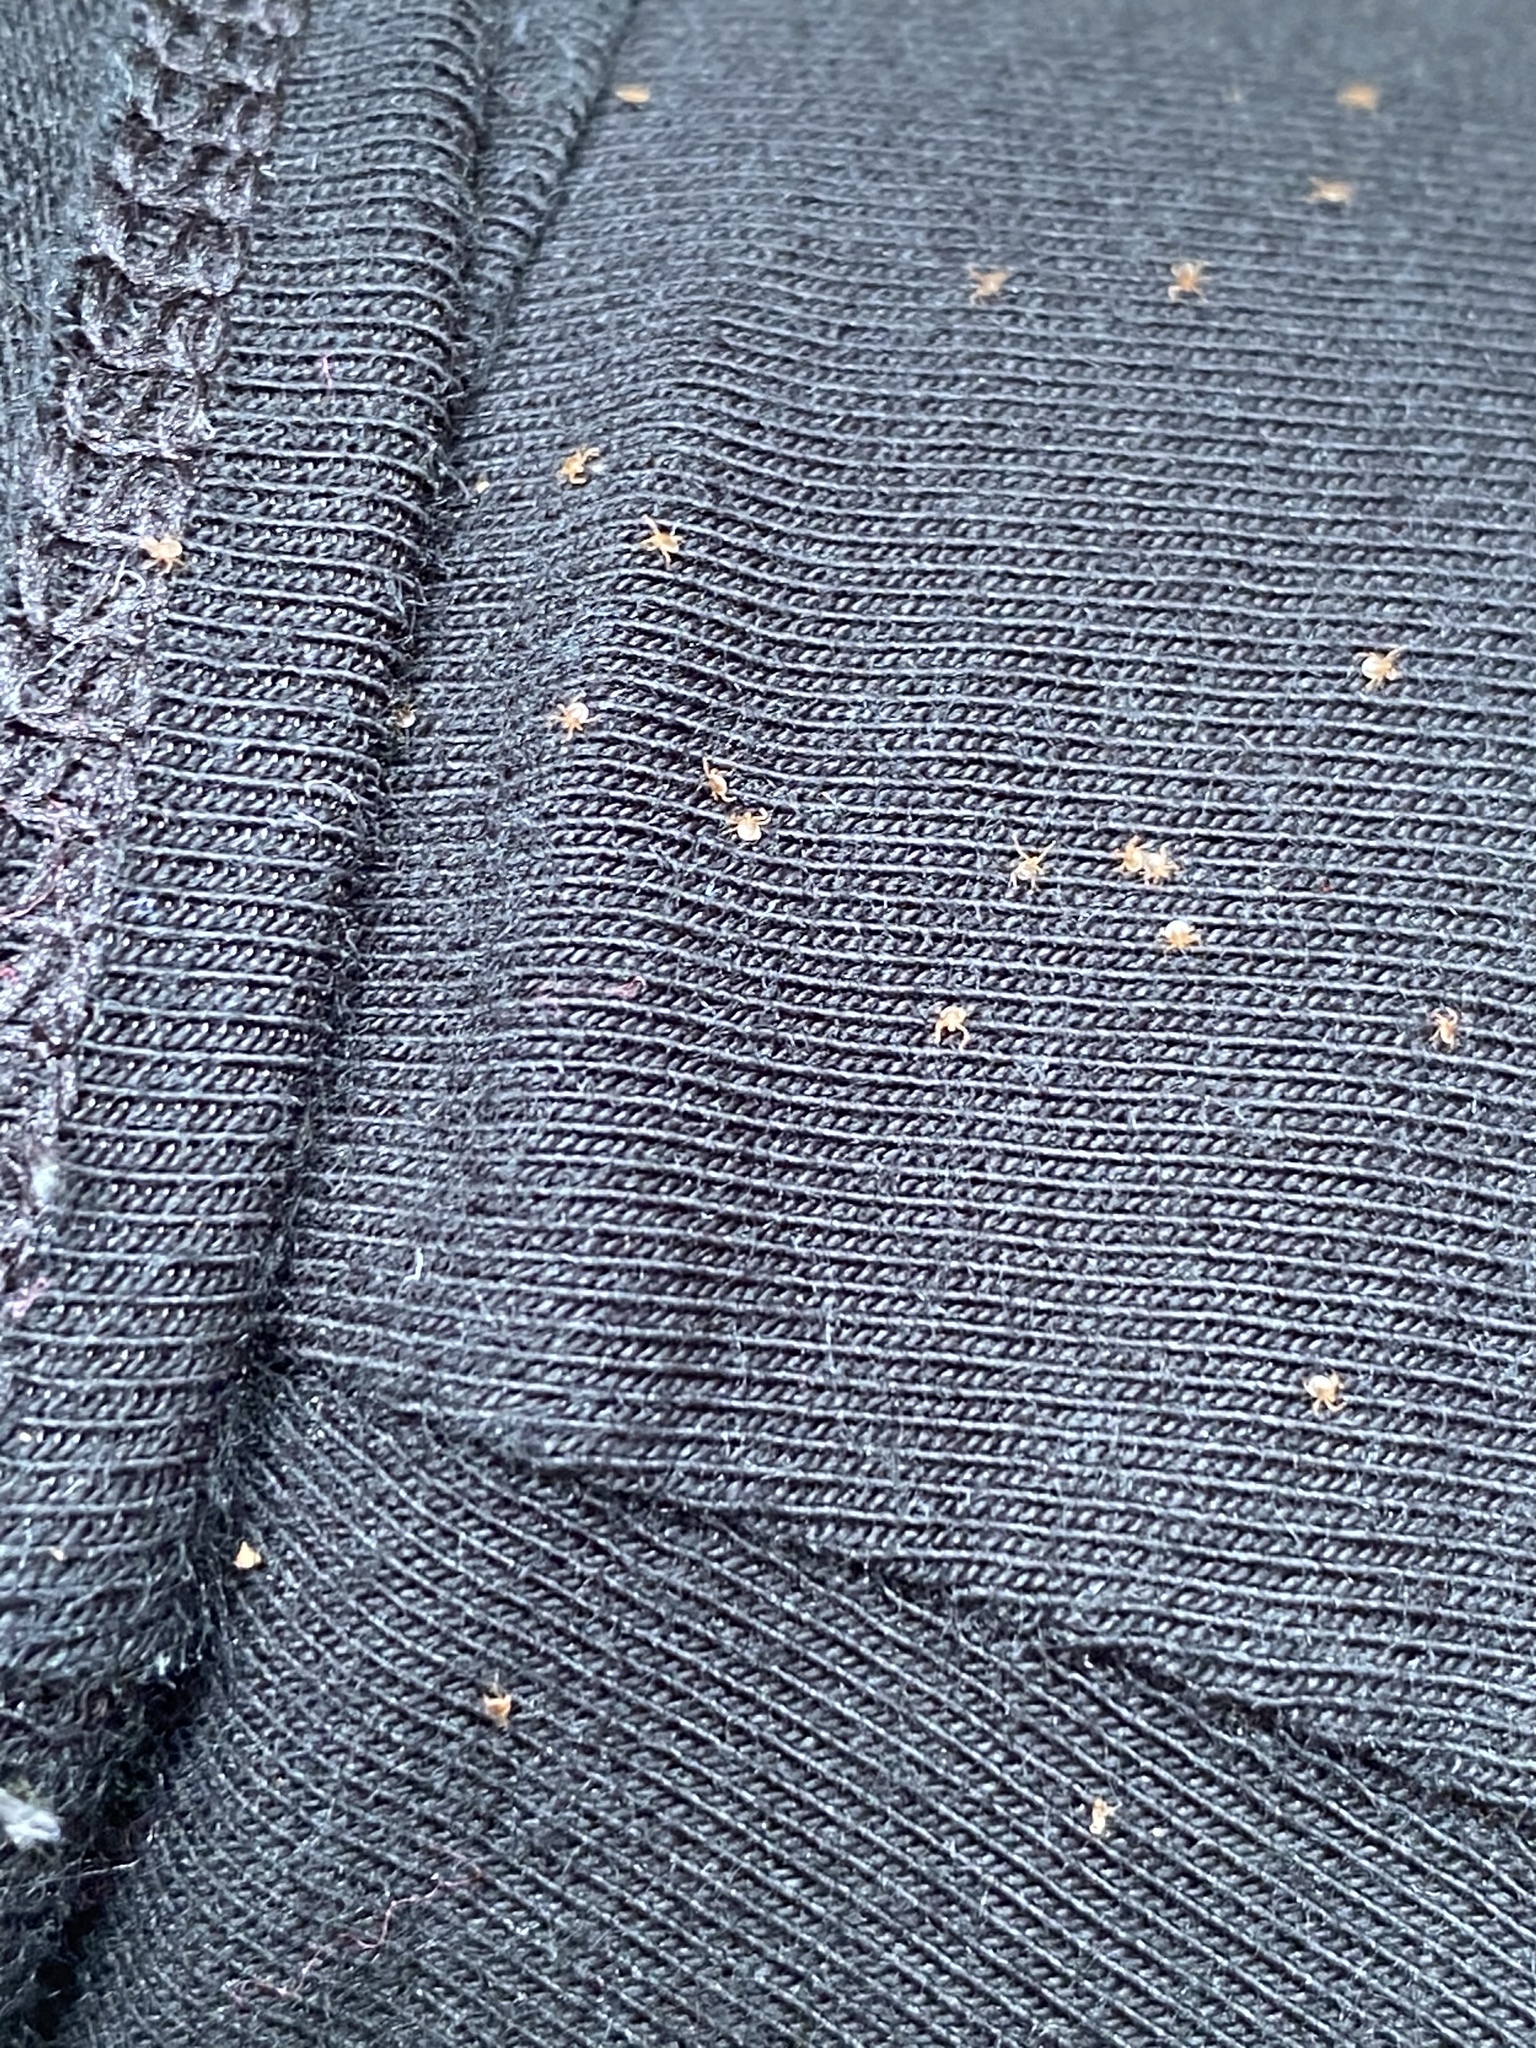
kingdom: Animalia
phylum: Arthropoda
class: Arachnida
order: Ixodida
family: Ixodidae
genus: Amblyomma
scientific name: Amblyomma americanum
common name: Lone star tick
